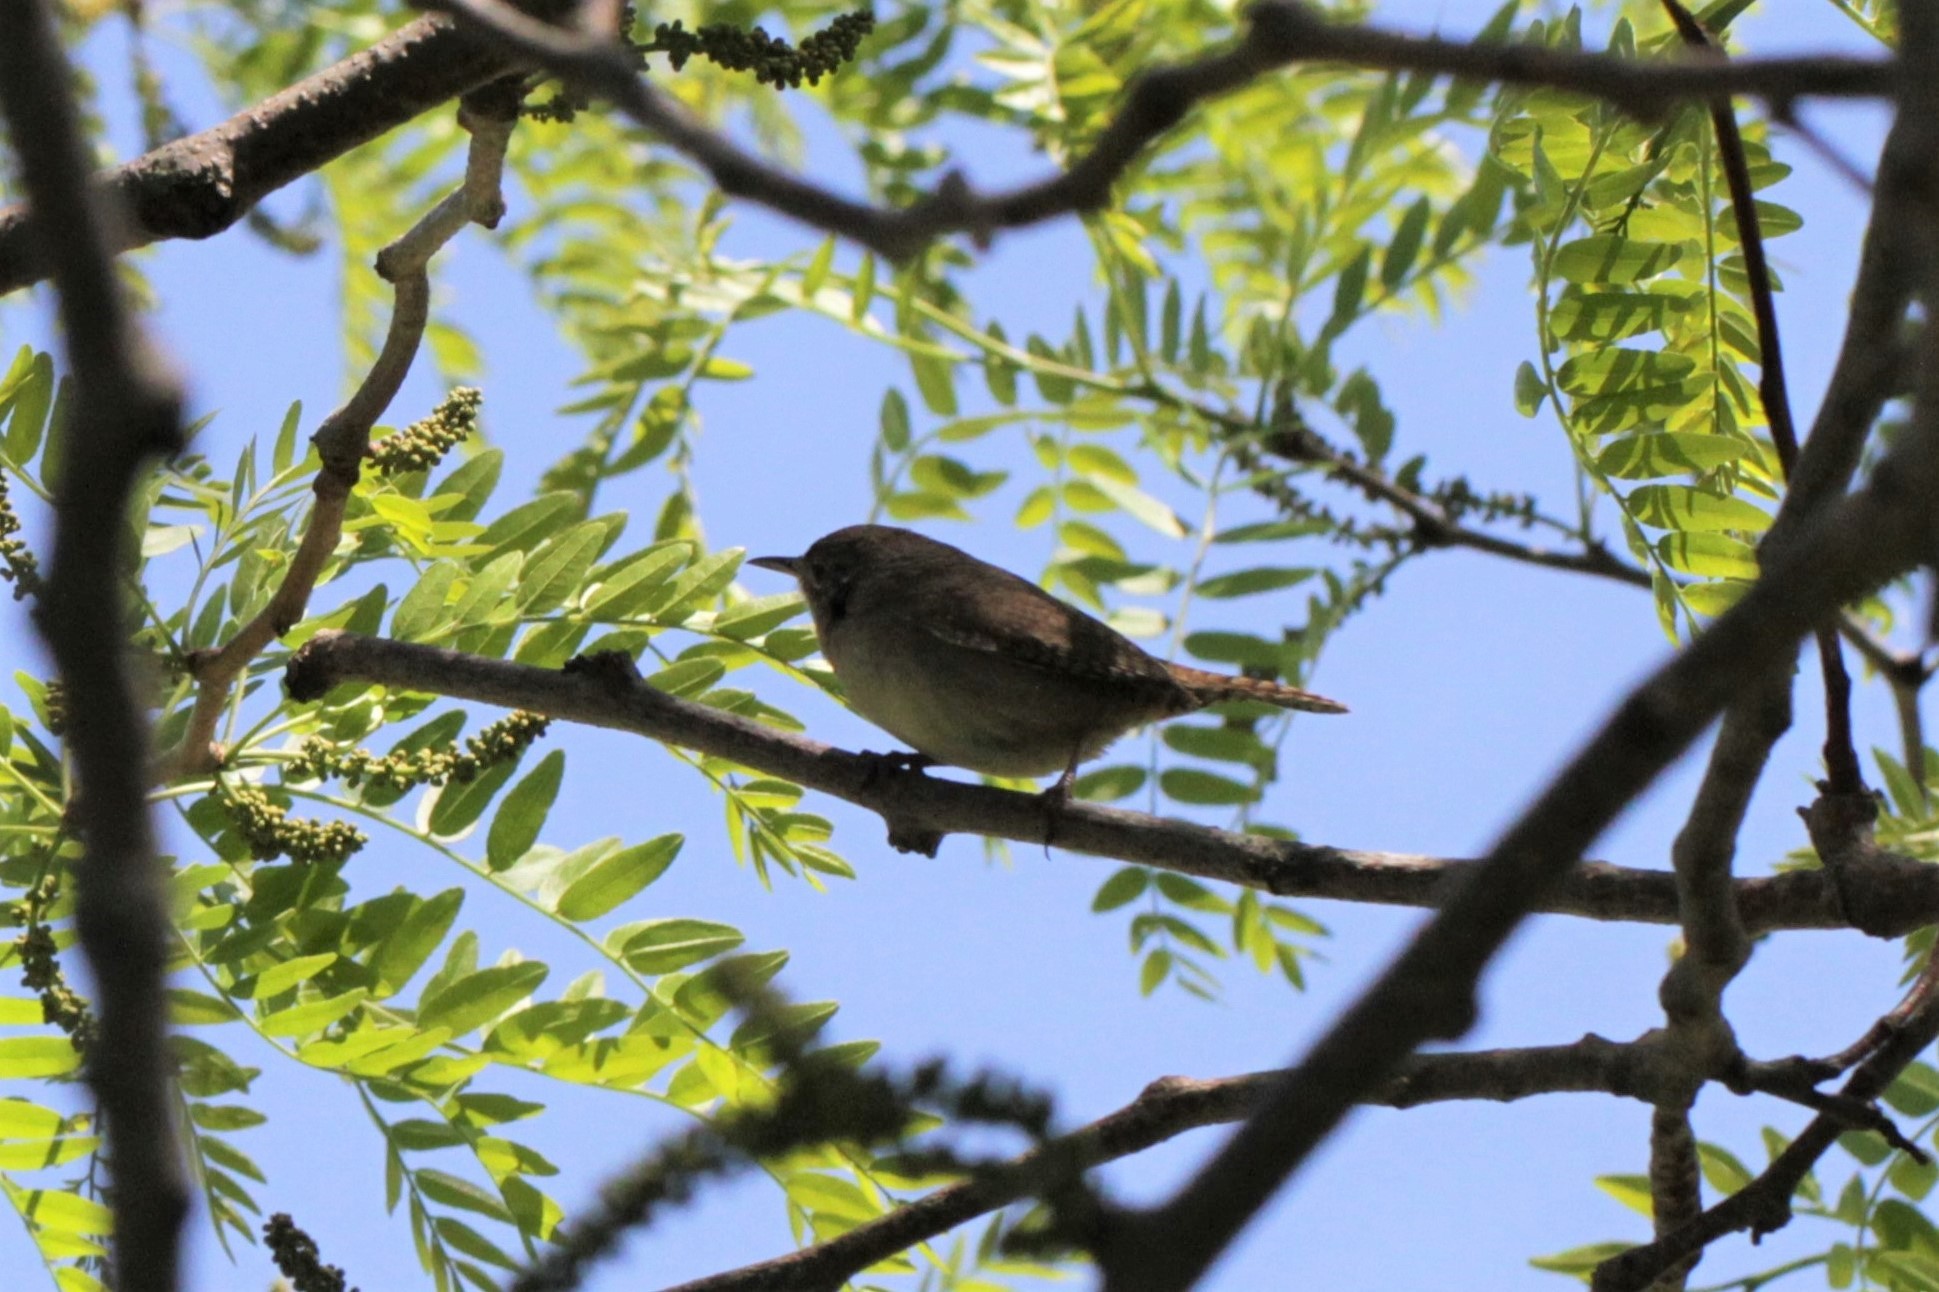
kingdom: Animalia
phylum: Chordata
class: Aves
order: Passeriformes
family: Troglodytidae
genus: Troglodytes
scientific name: Troglodytes aedon
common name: House wren
